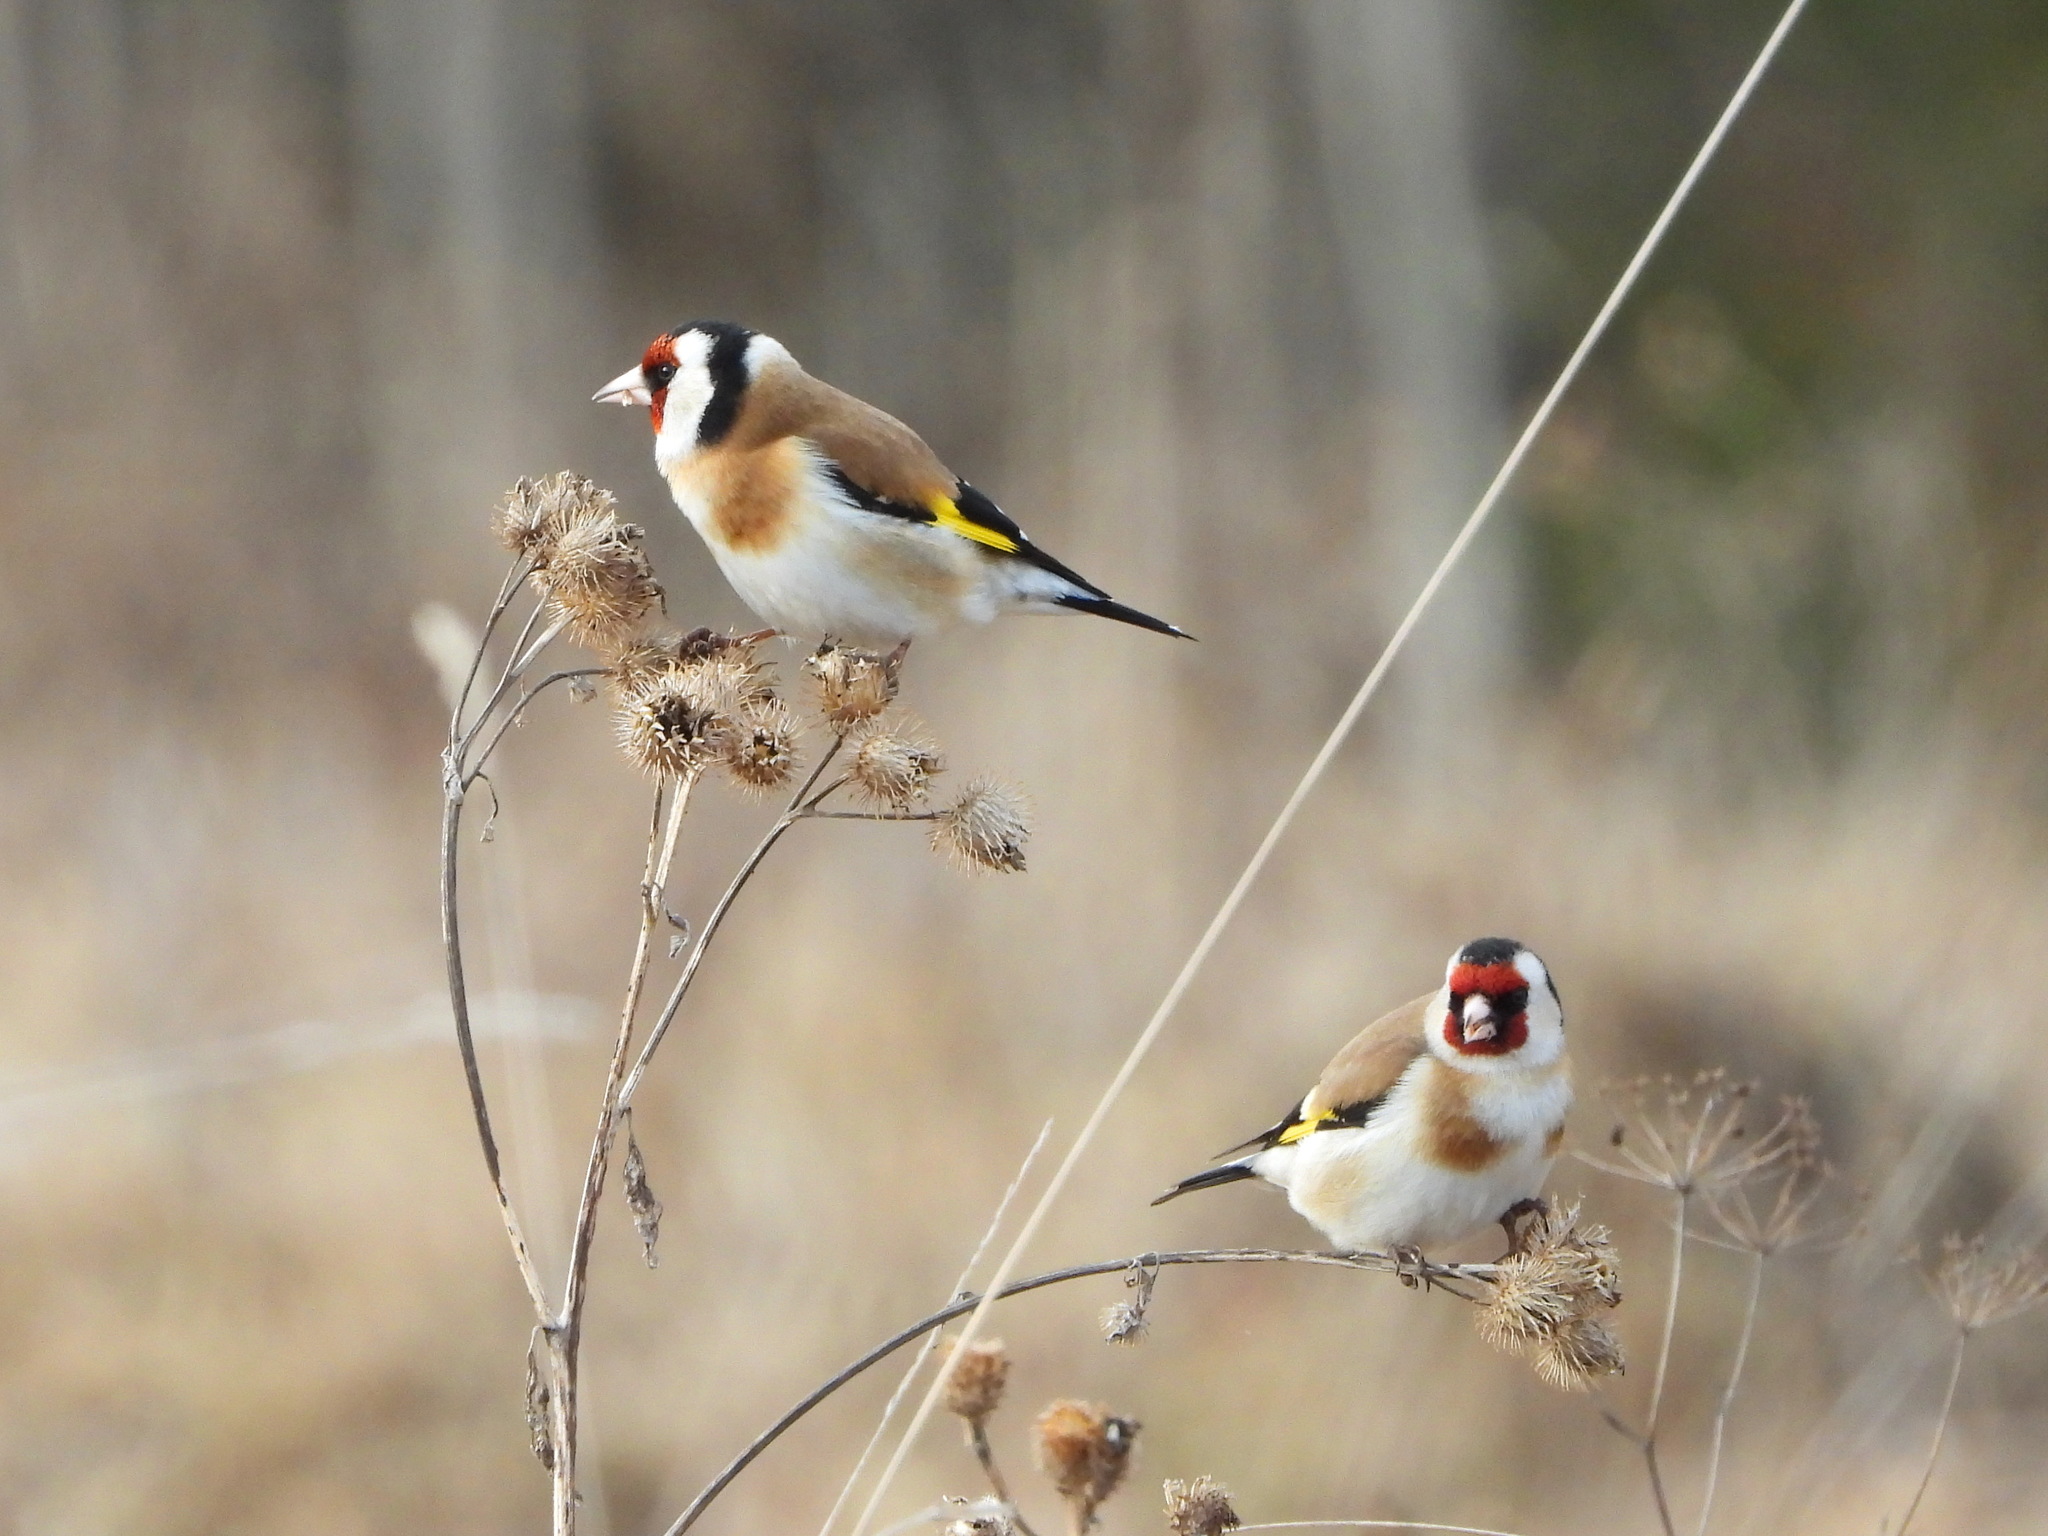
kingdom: Animalia
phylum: Chordata
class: Aves
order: Passeriformes
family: Fringillidae
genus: Carduelis
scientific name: Carduelis carduelis
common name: European goldfinch
